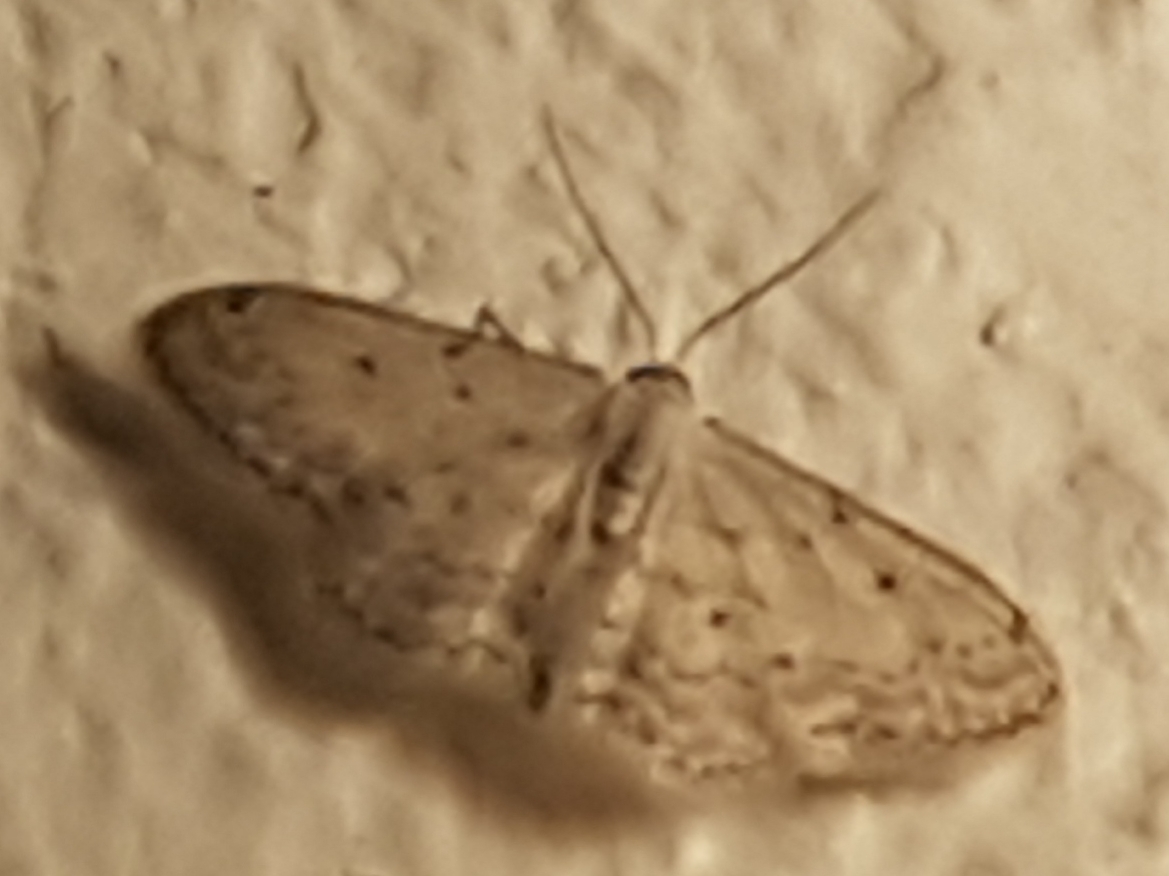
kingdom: Animalia
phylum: Arthropoda
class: Insecta
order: Lepidoptera
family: Geometridae
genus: Idaea
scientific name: Idaea seriata
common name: Small dusty wave
